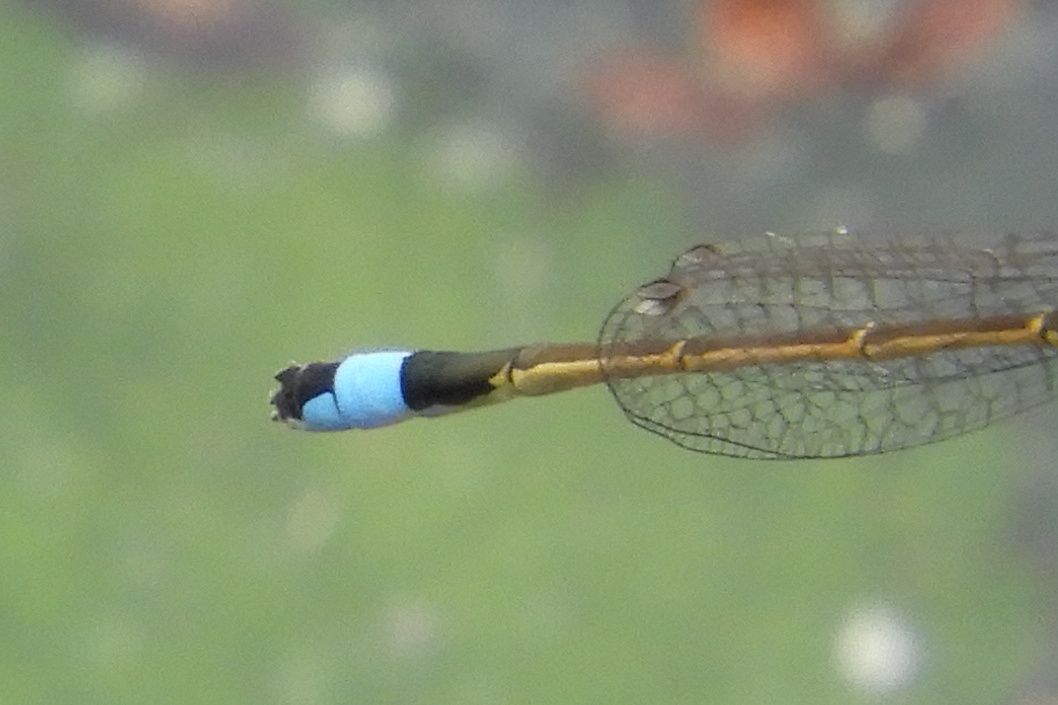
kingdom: Animalia
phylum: Arthropoda
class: Insecta
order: Odonata
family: Coenagrionidae
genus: Ischnura
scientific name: Ischnura ramburii
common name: Rambur's forktail
